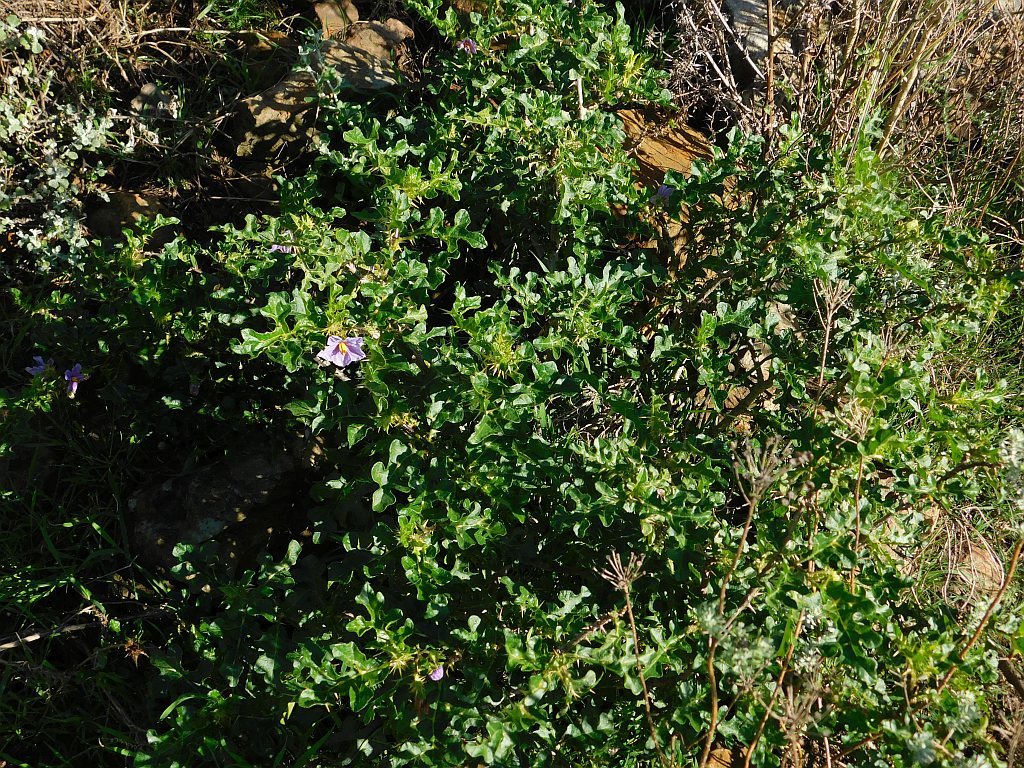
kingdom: Plantae
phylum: Tracheophyta
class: Magnoliopsida
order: Solanales
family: Solanaceae
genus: Solanum
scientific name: Solanum linnaeanum
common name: Nightshade
